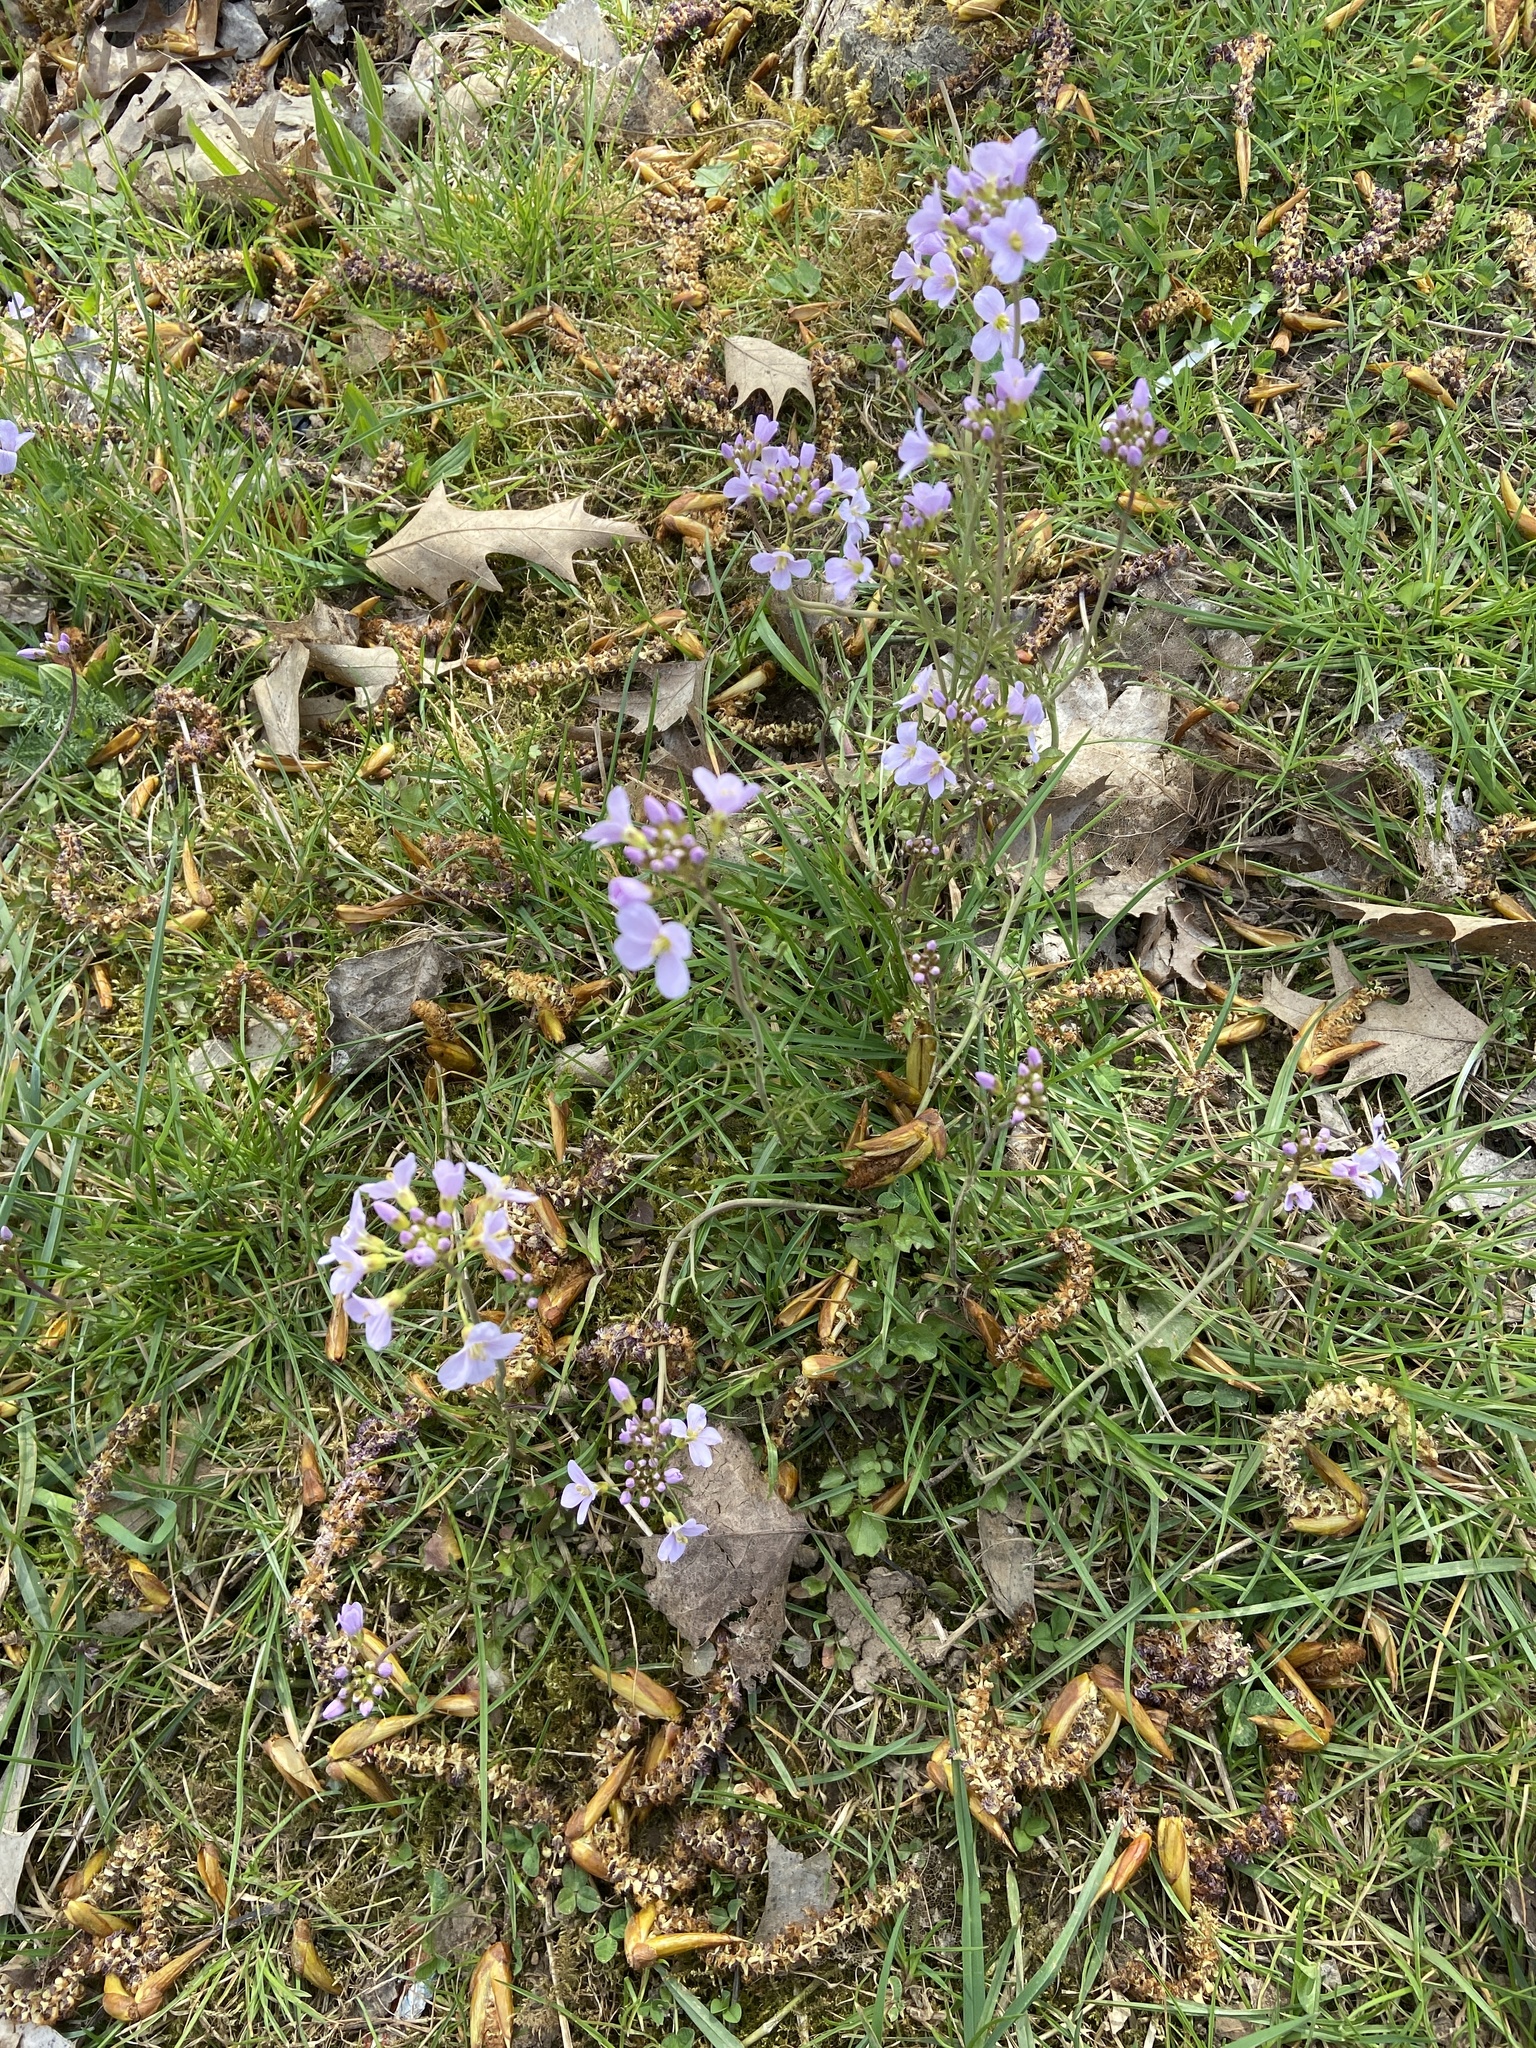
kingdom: Plantae
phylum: Tracheophyta
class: Magnoliopsida
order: Brassicales
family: Brassicaceae
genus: Cardamine
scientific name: Cardamine pratensis
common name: Cuckoo flower
